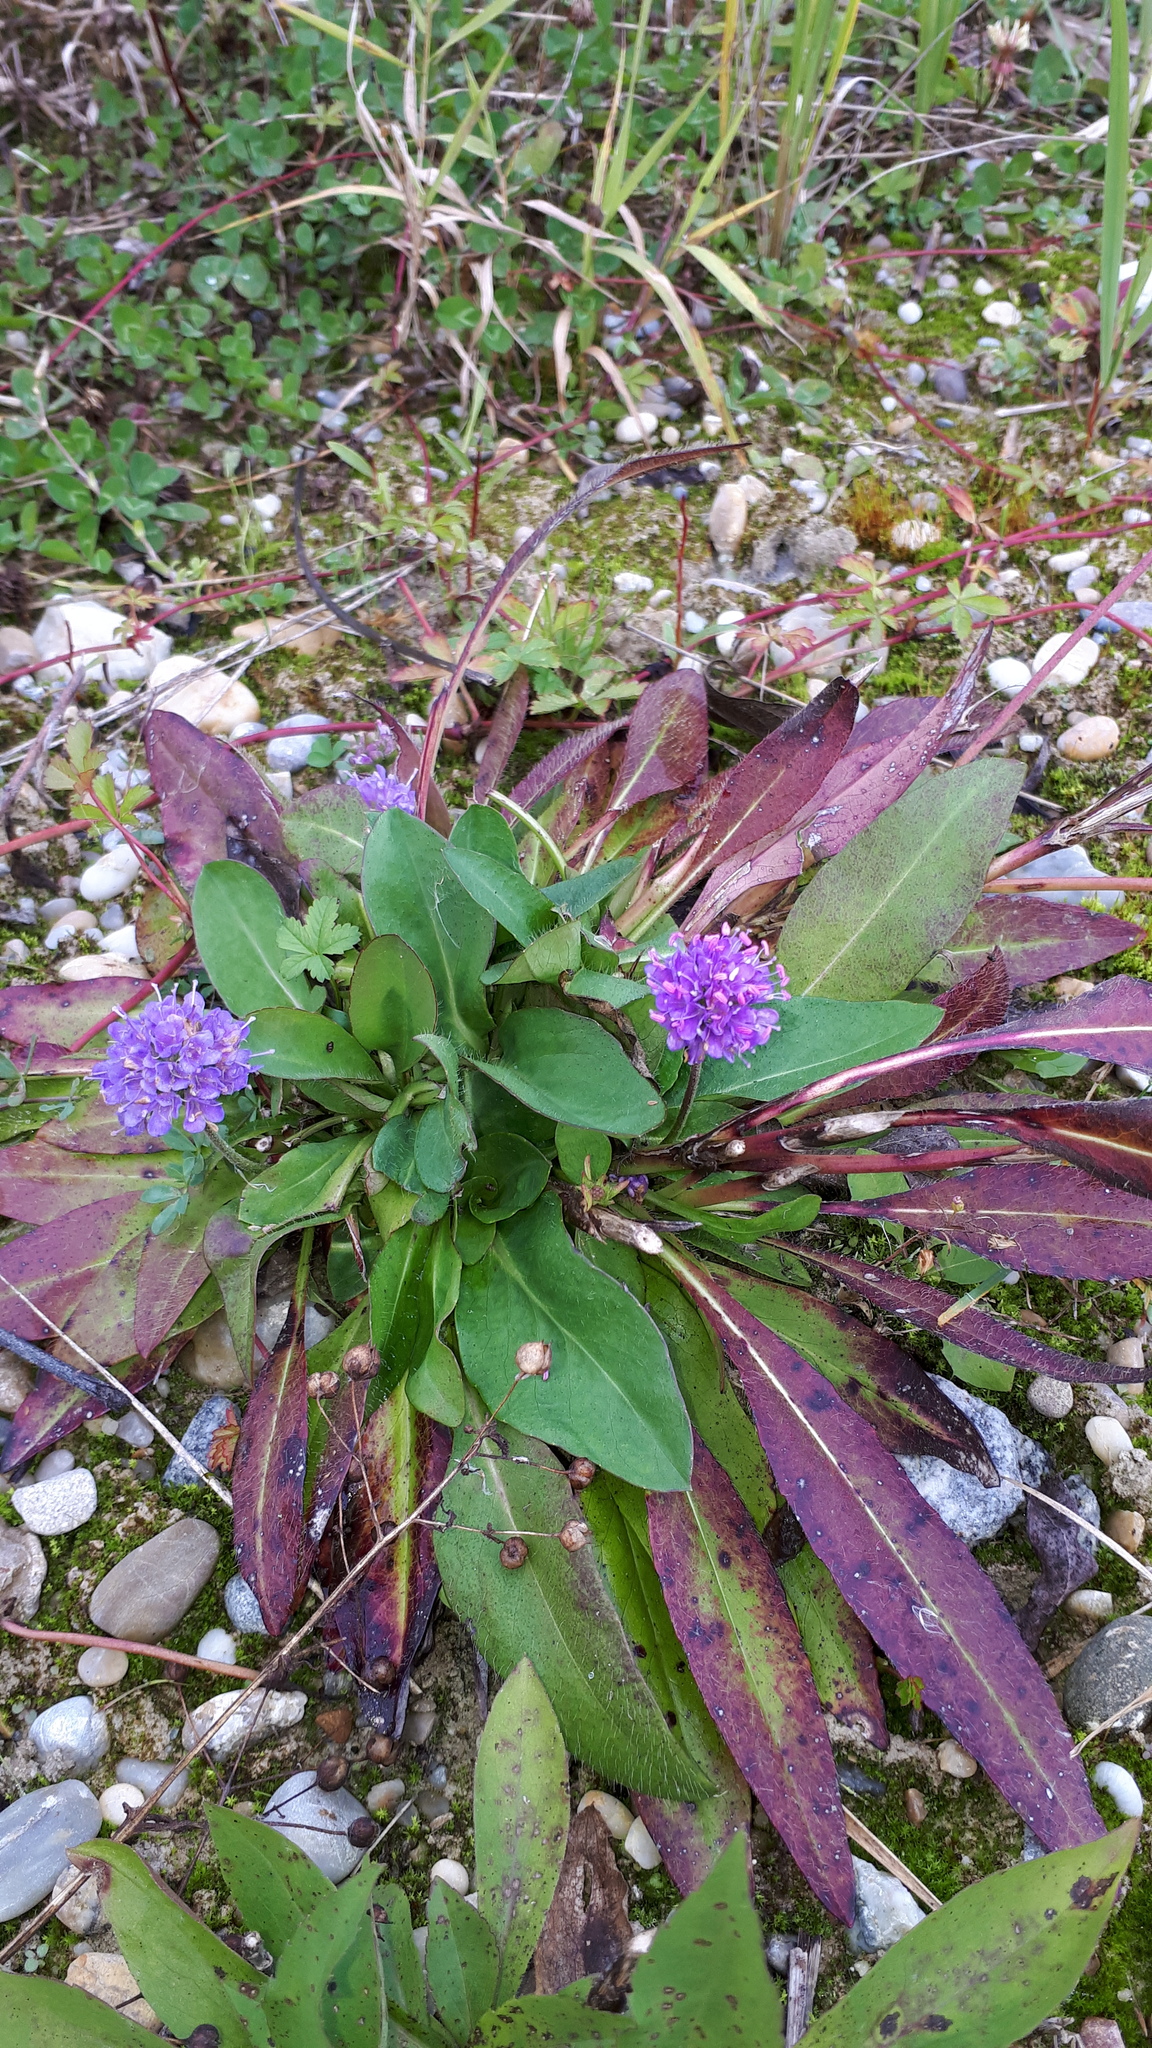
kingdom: Plantae
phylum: Tracheophyta
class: Magnoliopsida
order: Dipsacales
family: Caprifoliaceae
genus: Succisa
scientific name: Succisa pratensis
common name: Devil's-bit
